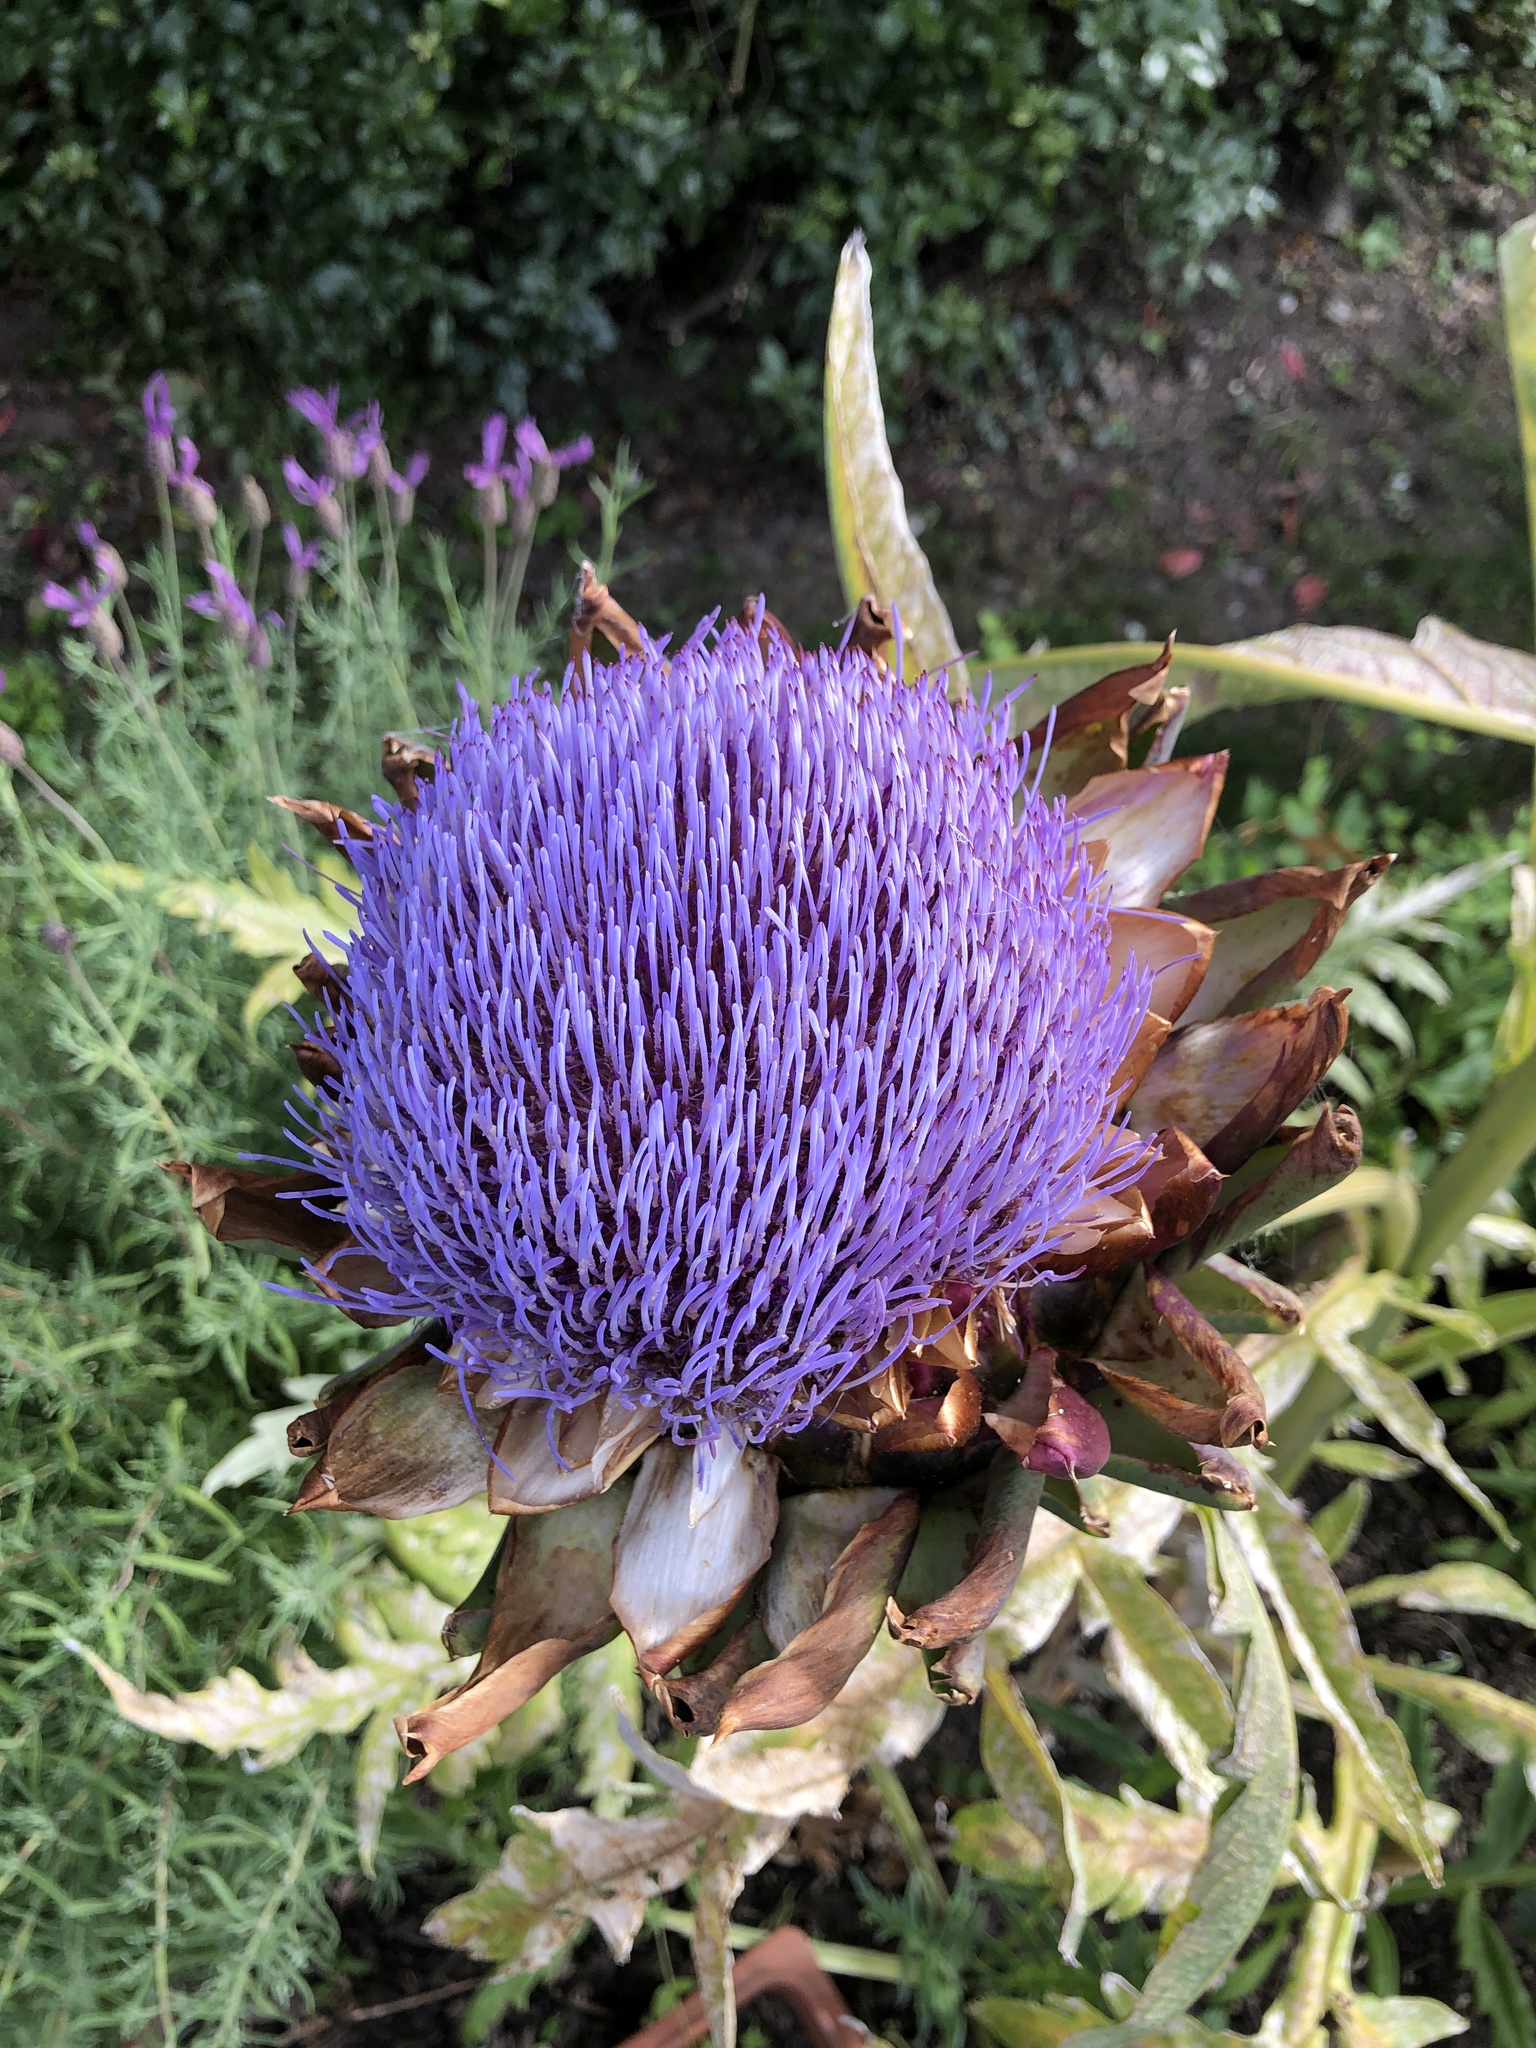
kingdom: Plantae
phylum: Tracheophyta
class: Magnoliopsida
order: Asterales
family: Asteraceae
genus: Cynara
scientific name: Cynara cardunculus
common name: Globe artichoke
